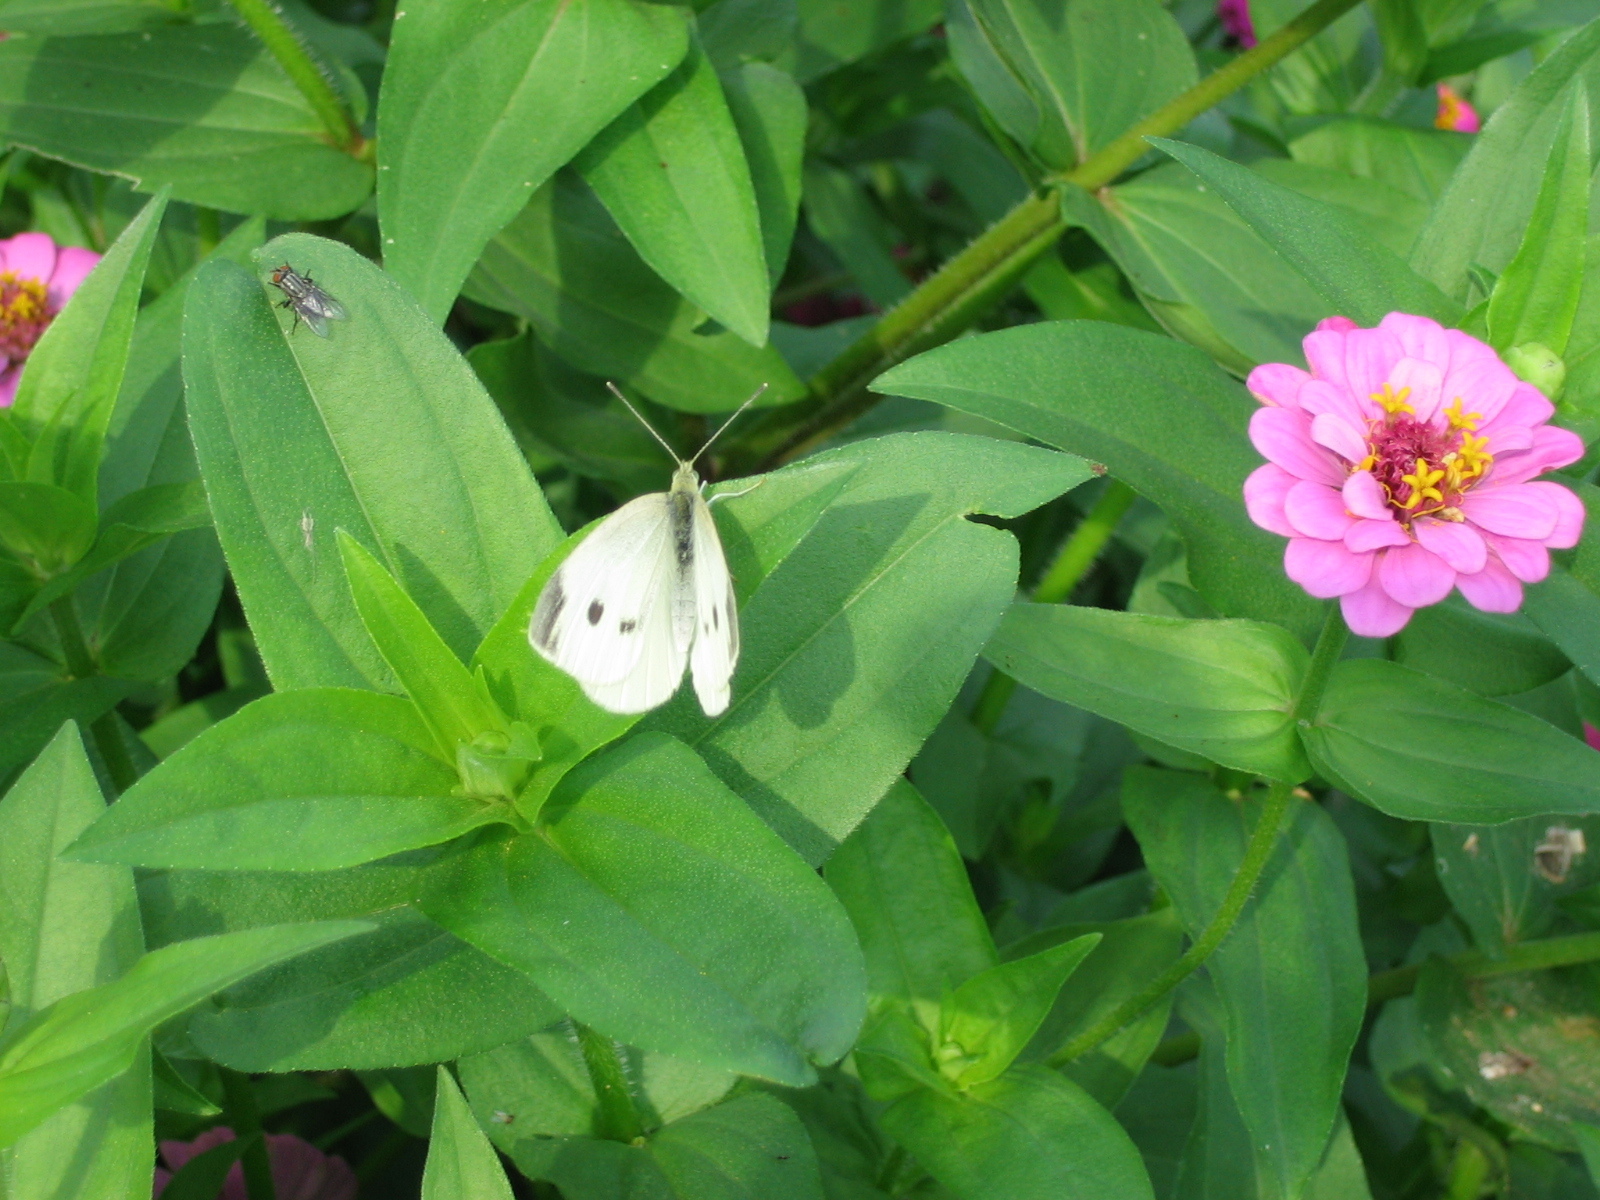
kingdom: Animalia
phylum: Arthropoda
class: Insecta
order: Lepidoptera
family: Pieridae
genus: Pieris
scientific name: Pieris rapae
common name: Small white
